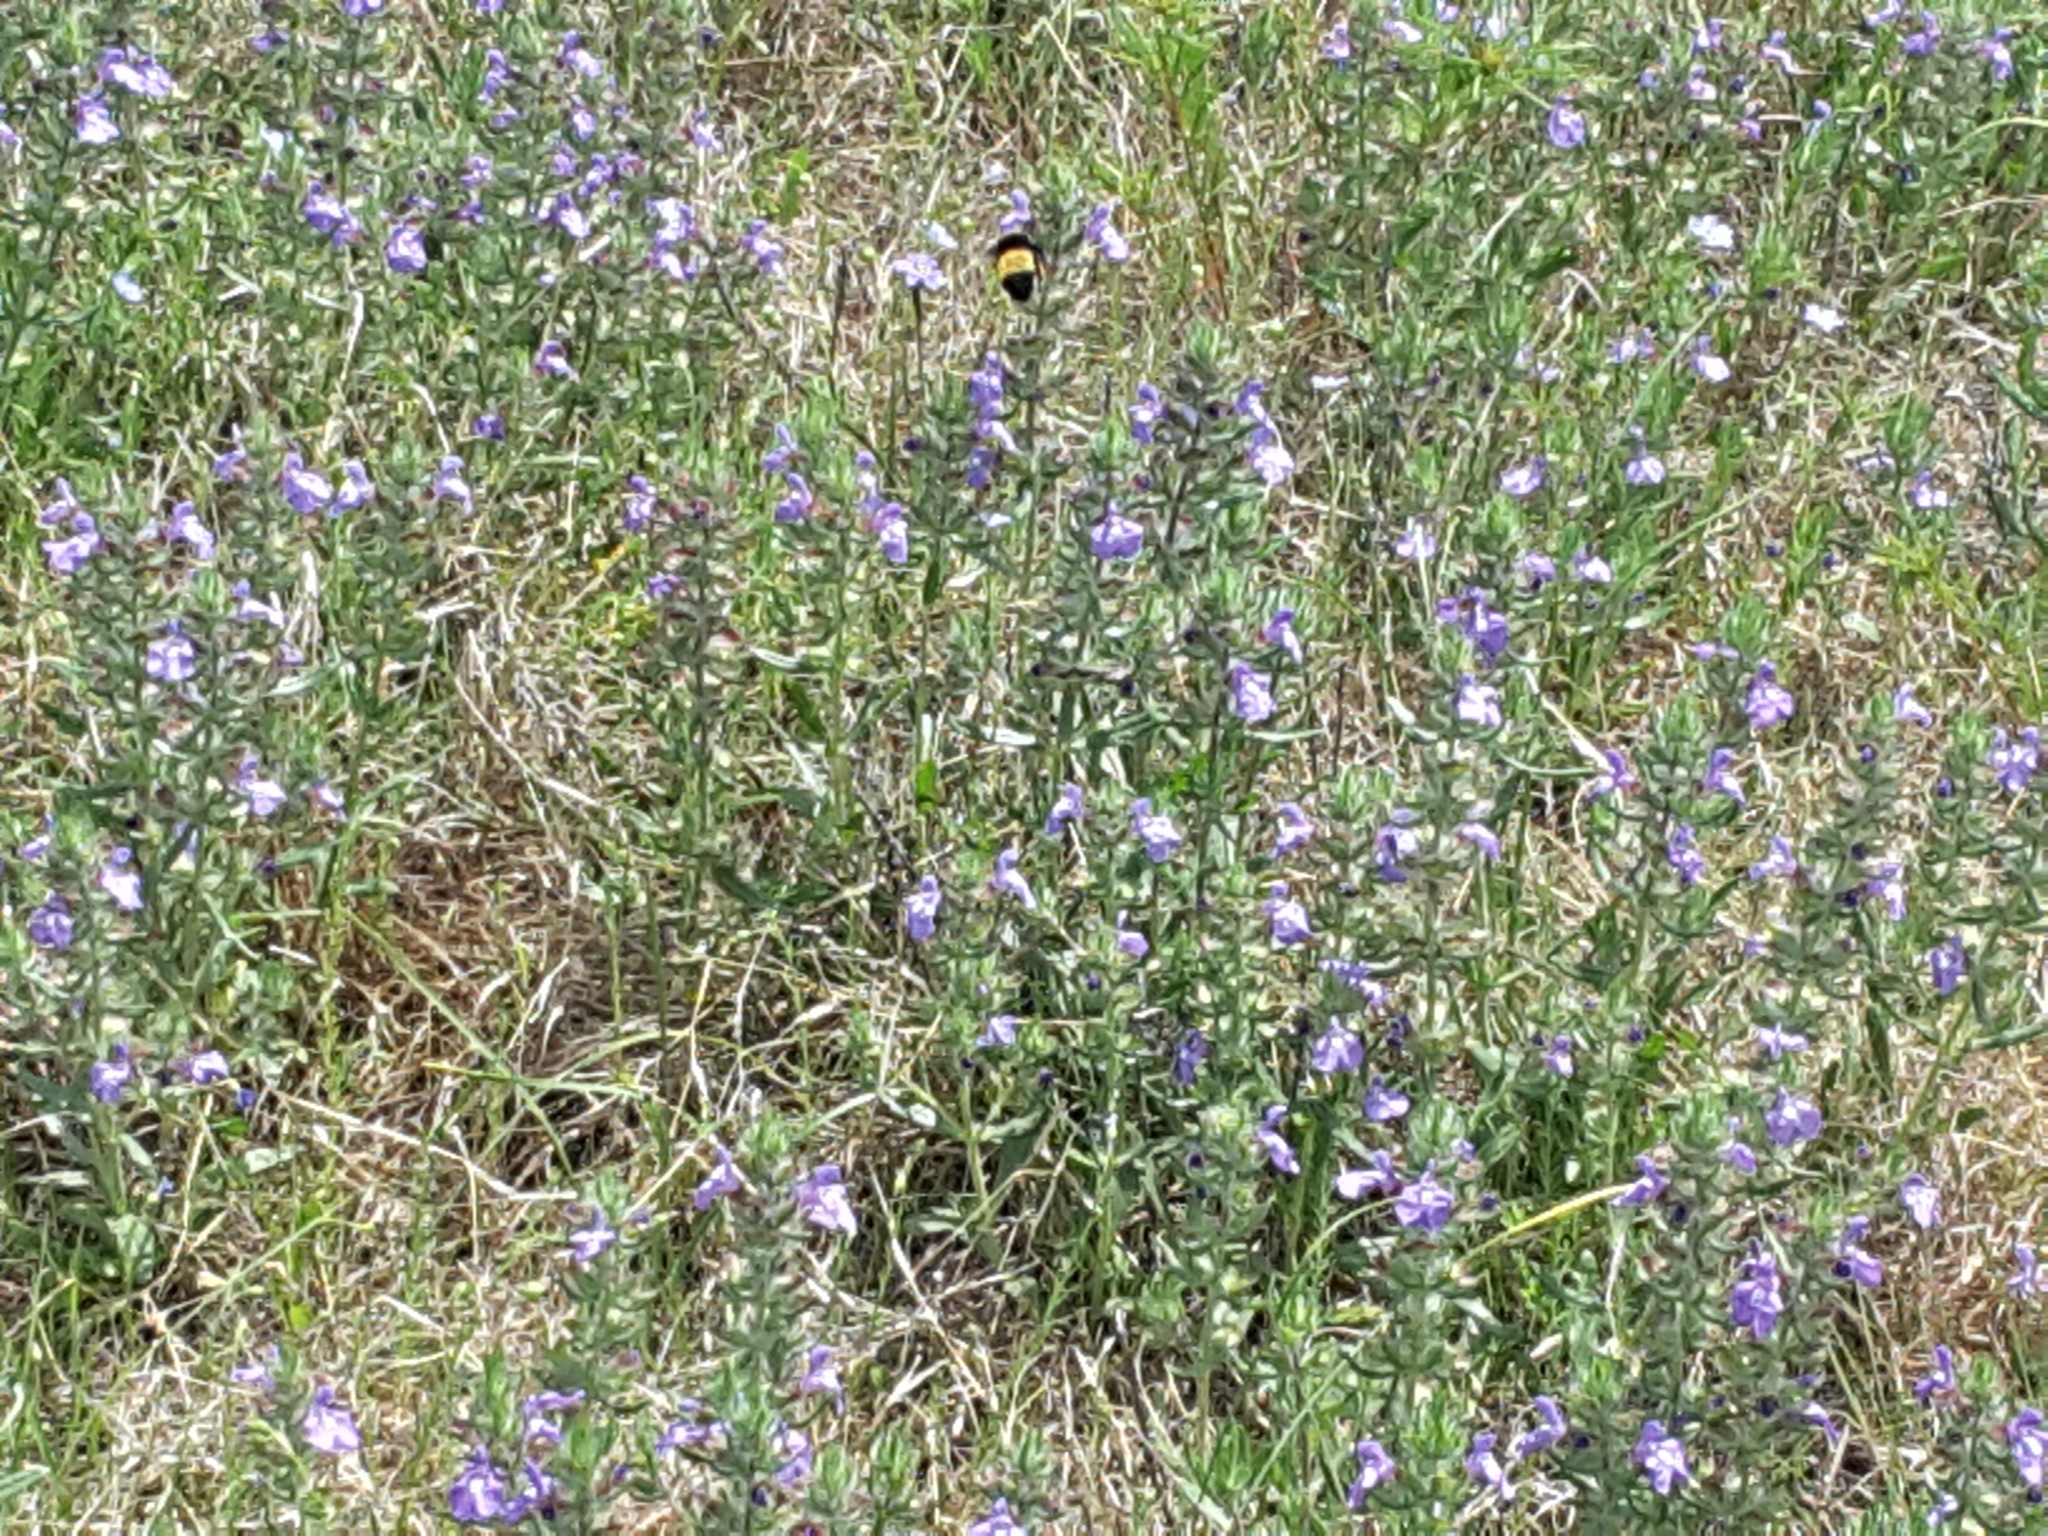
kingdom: Animalia
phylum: Arthropoda
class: Insecta
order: Hymenoptera
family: Apidae
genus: Bombus
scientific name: Bombus pensylvanicus
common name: Bumble bee
